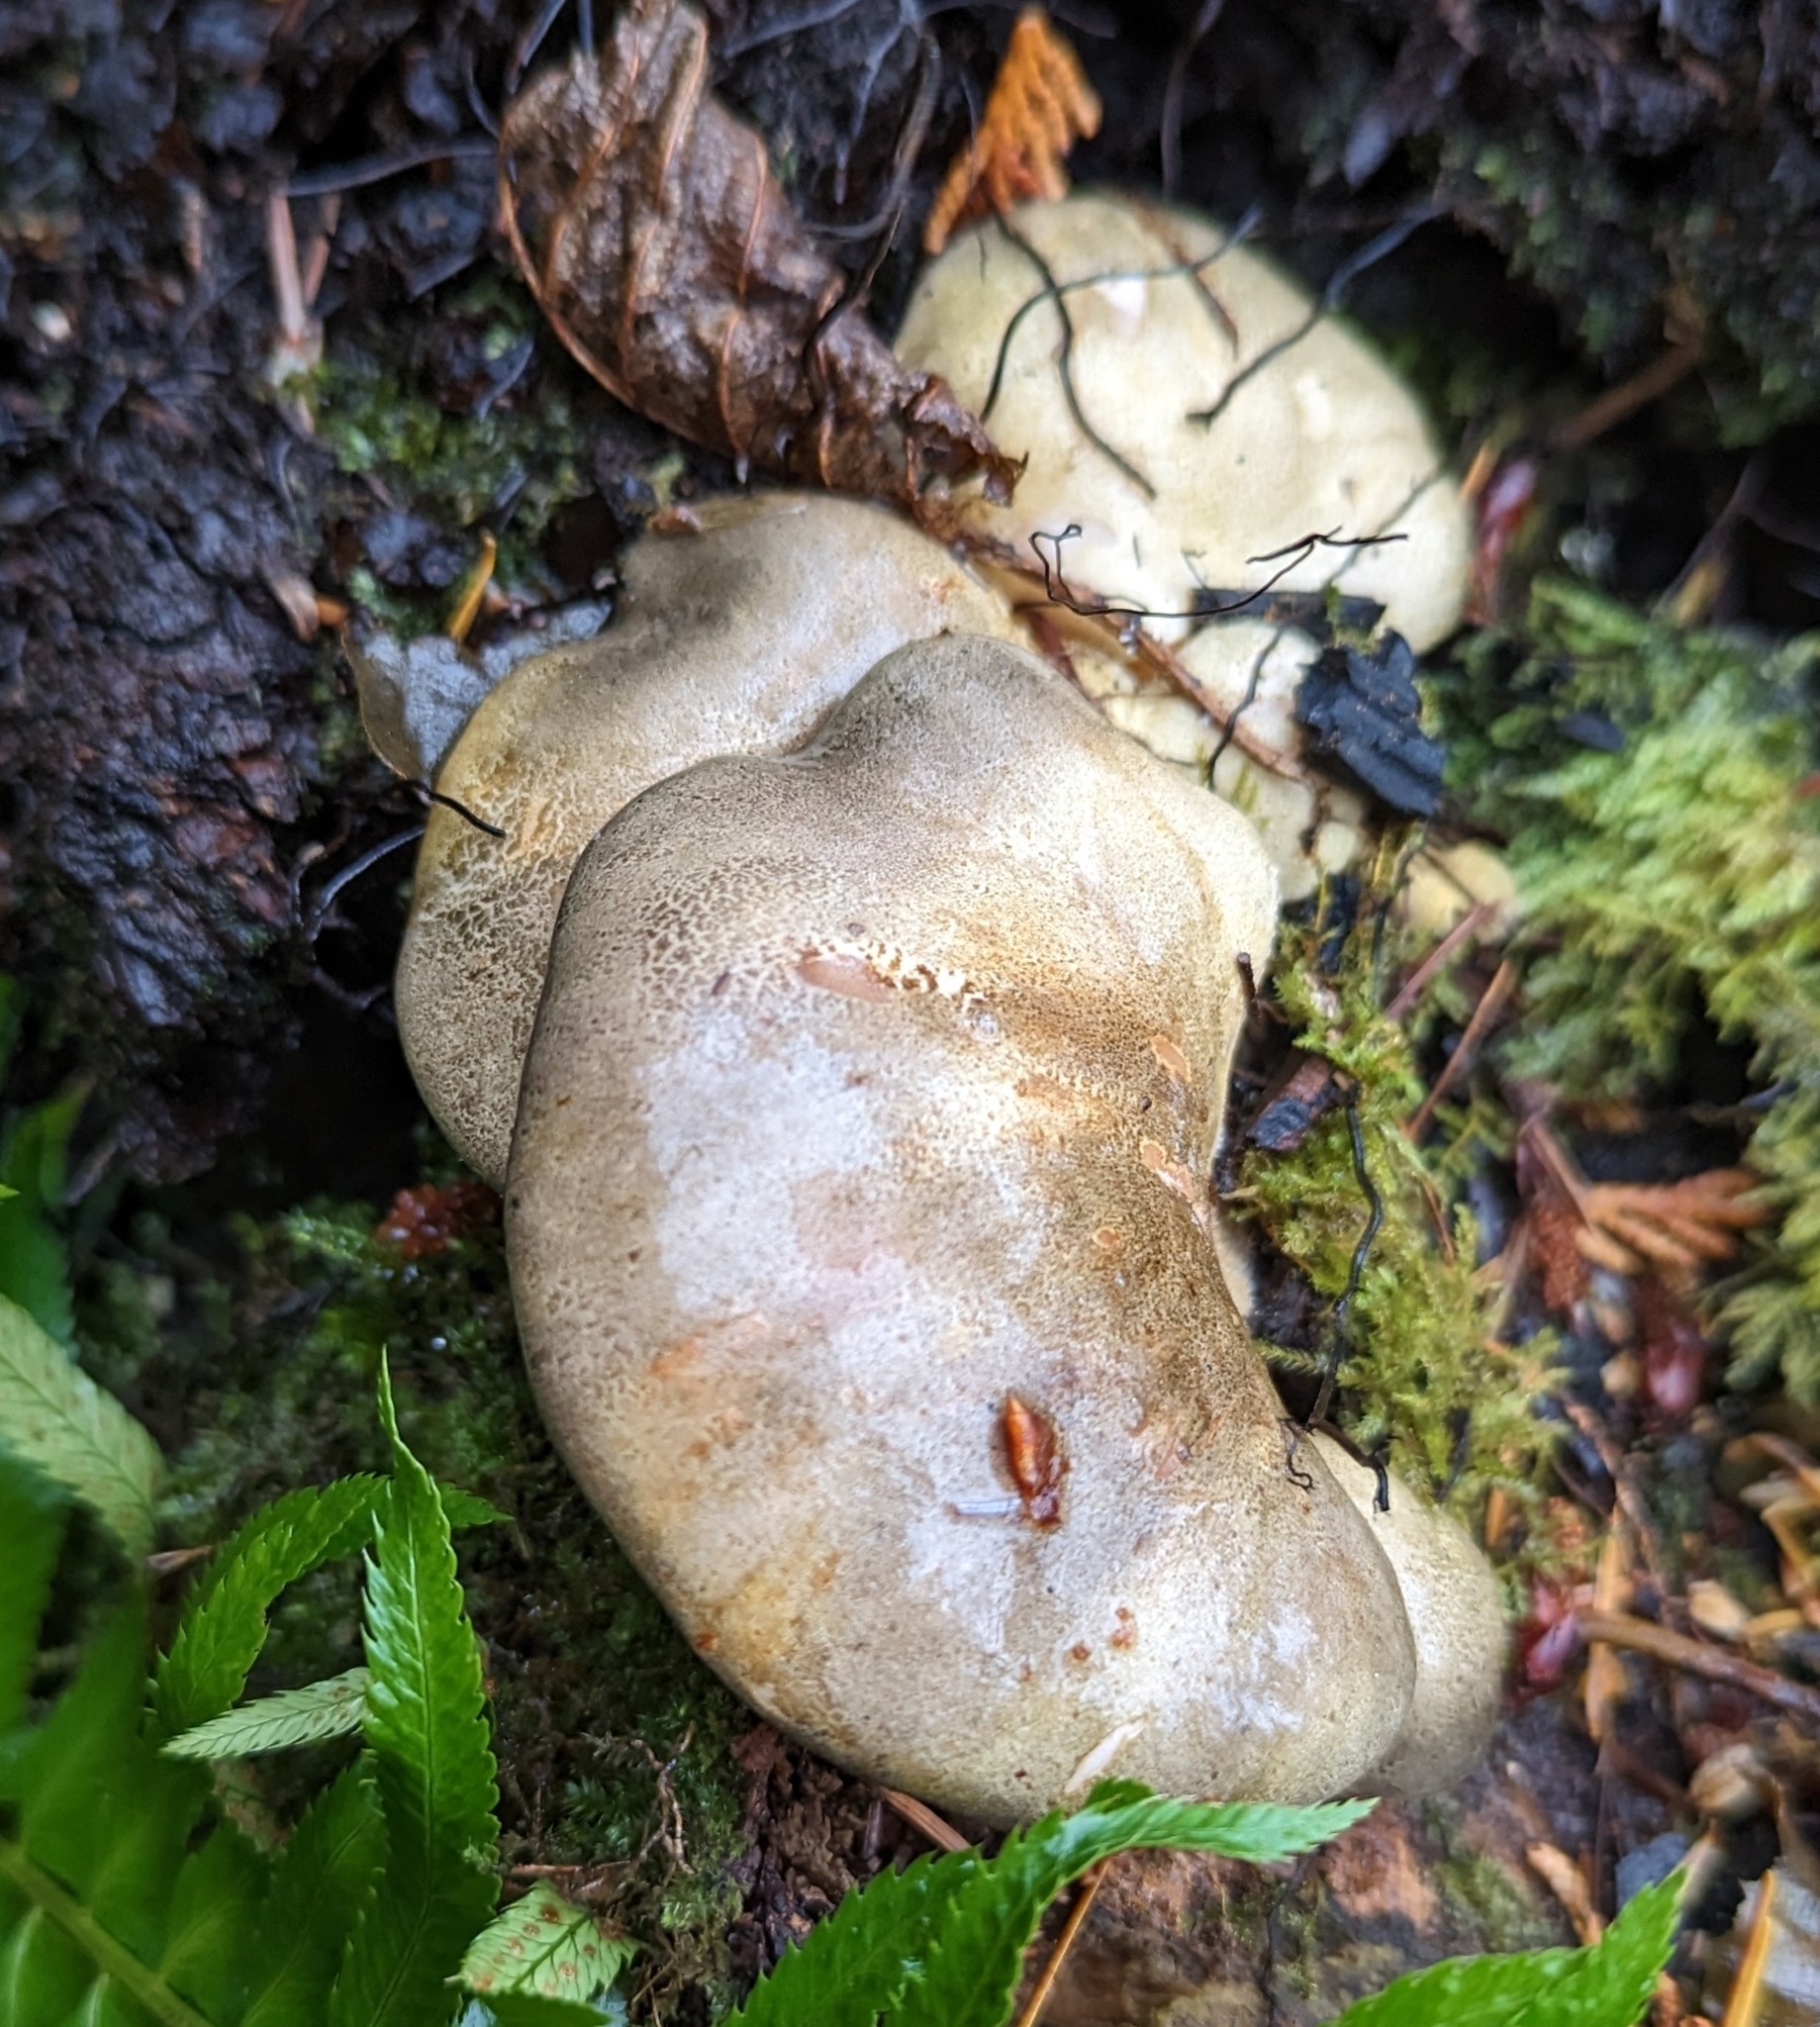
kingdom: Fungi
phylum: Basidiomycota
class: Agaricomycetes
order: Agaricales
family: Sarcomyxaceae
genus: Sarcomyxa
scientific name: Sarcomyxa serotina
